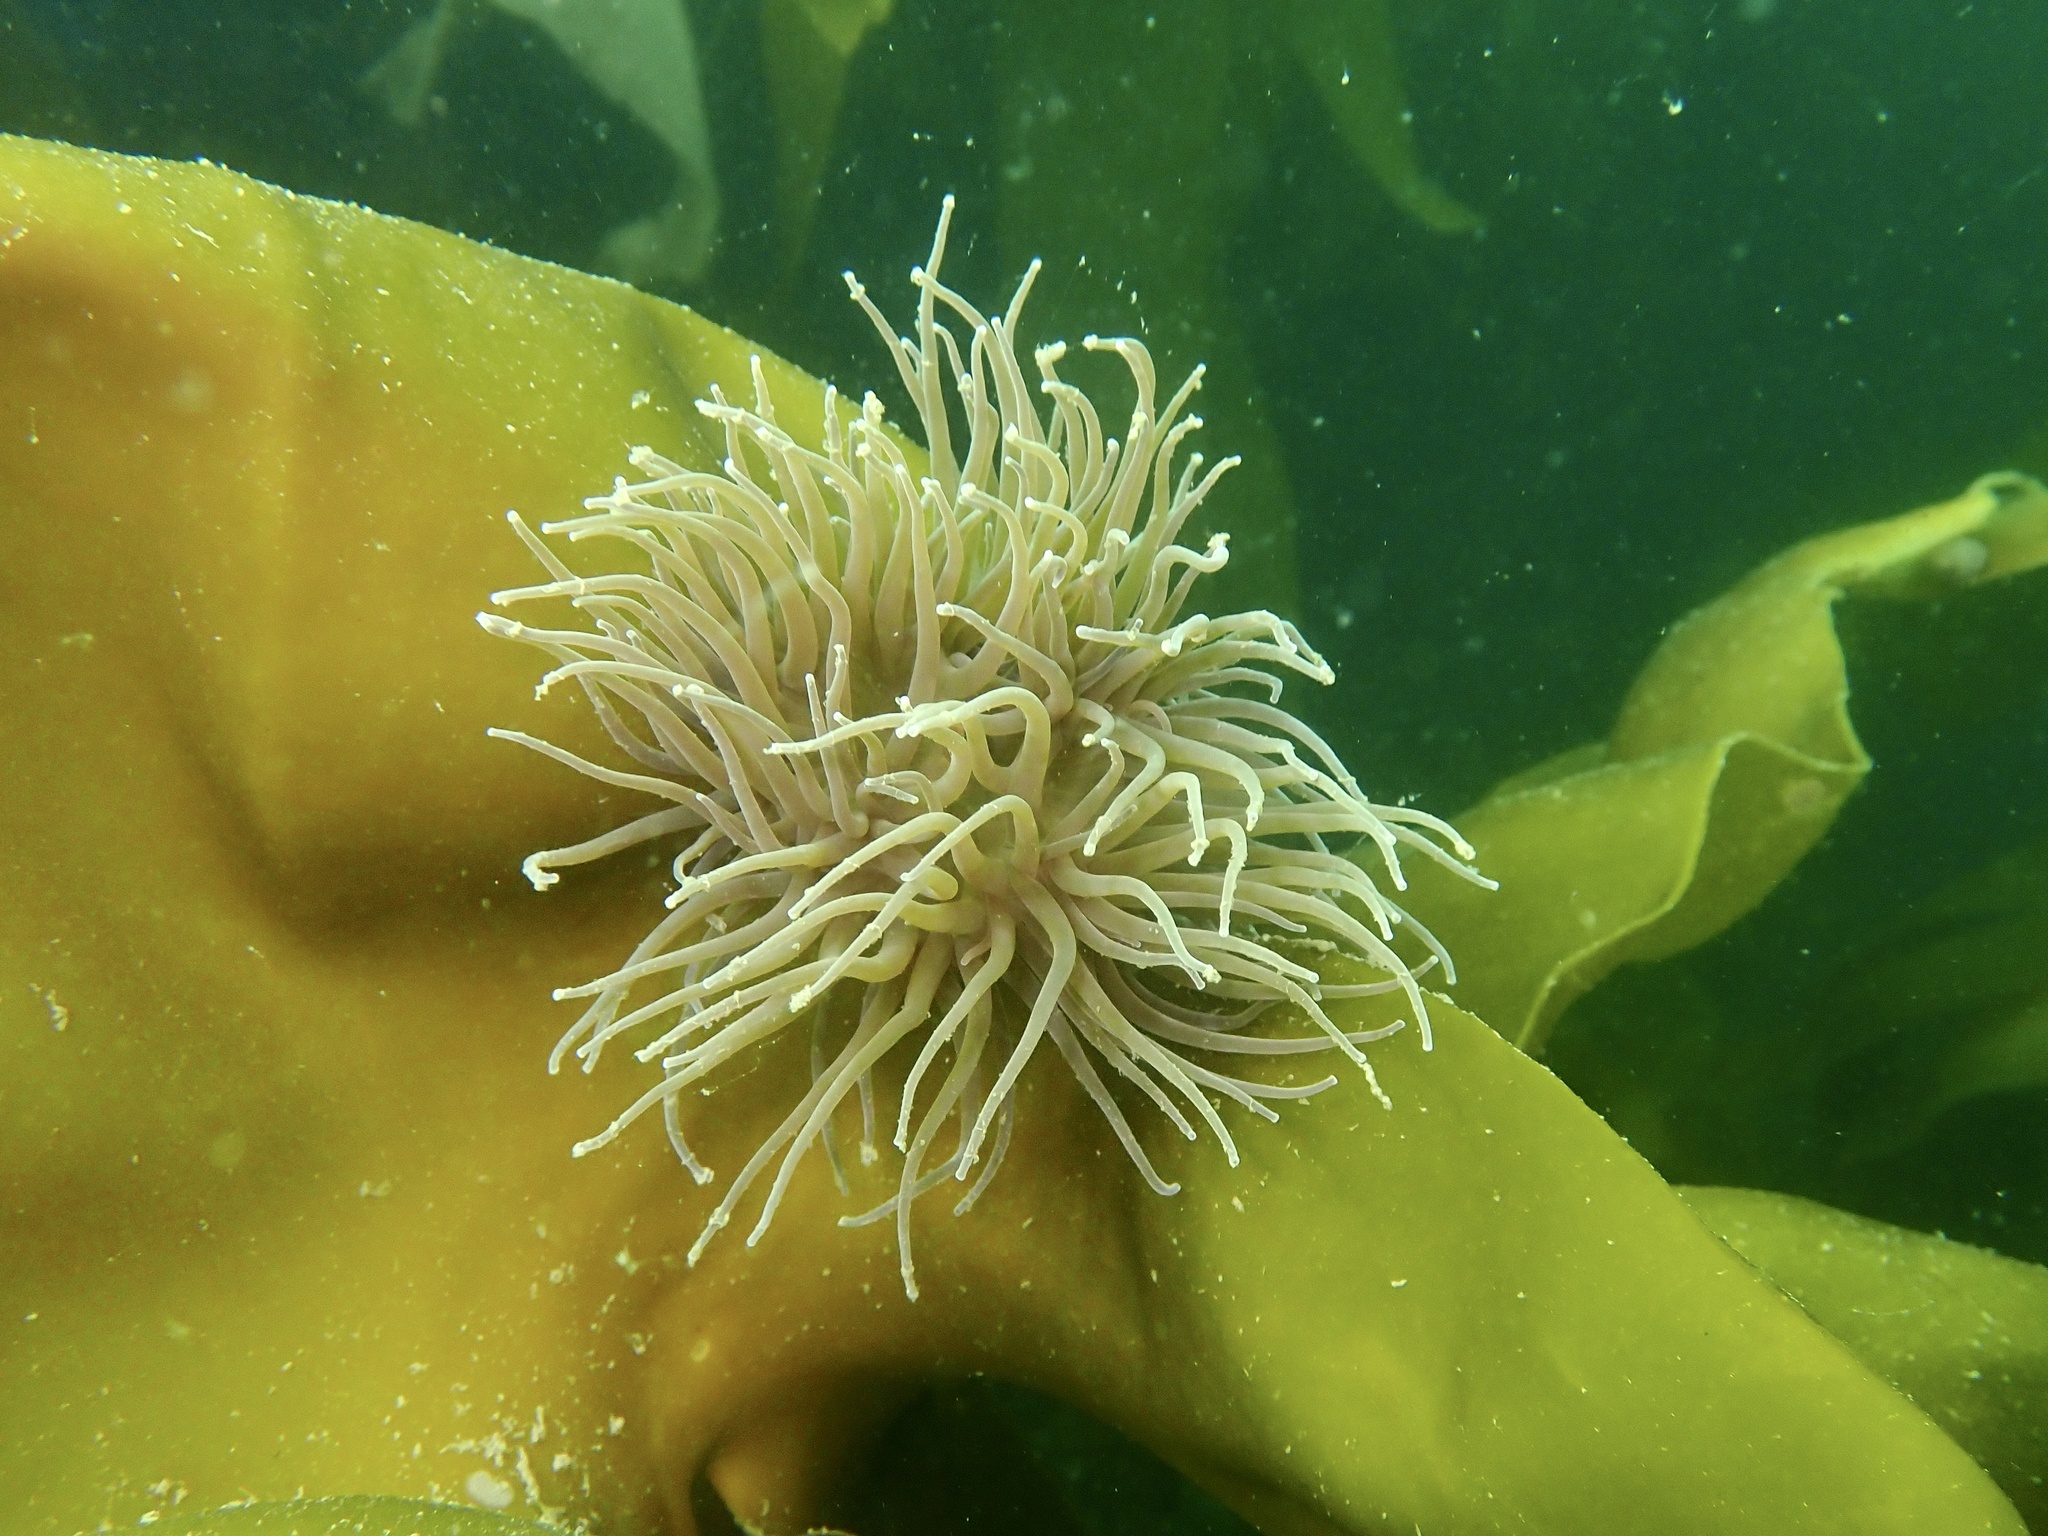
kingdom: Animalia
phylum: Cnidaria
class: Anthozoa
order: Actiniaria
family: Actiniidae
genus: Anemonia
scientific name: Anemonia viridis
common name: Snakelocks anemone
